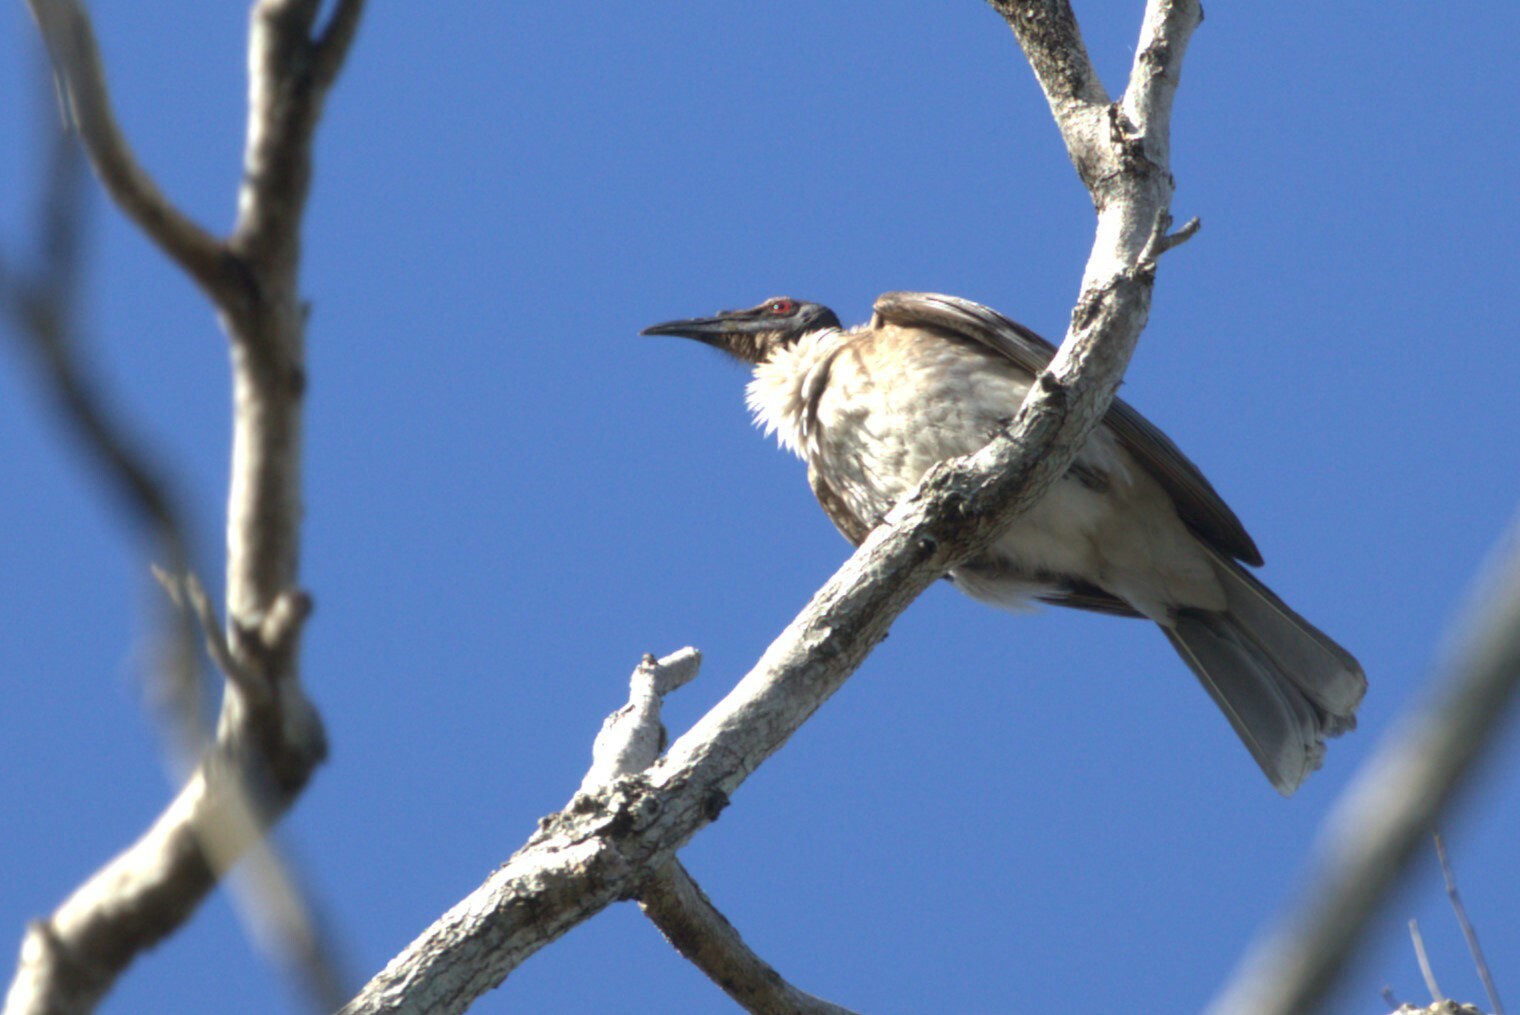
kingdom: Animalia
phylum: Chordata
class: Aves
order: Passeriformes
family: Meliphagidae
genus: Philemon
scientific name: Philemon corniculatus
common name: Noisy friarbird
